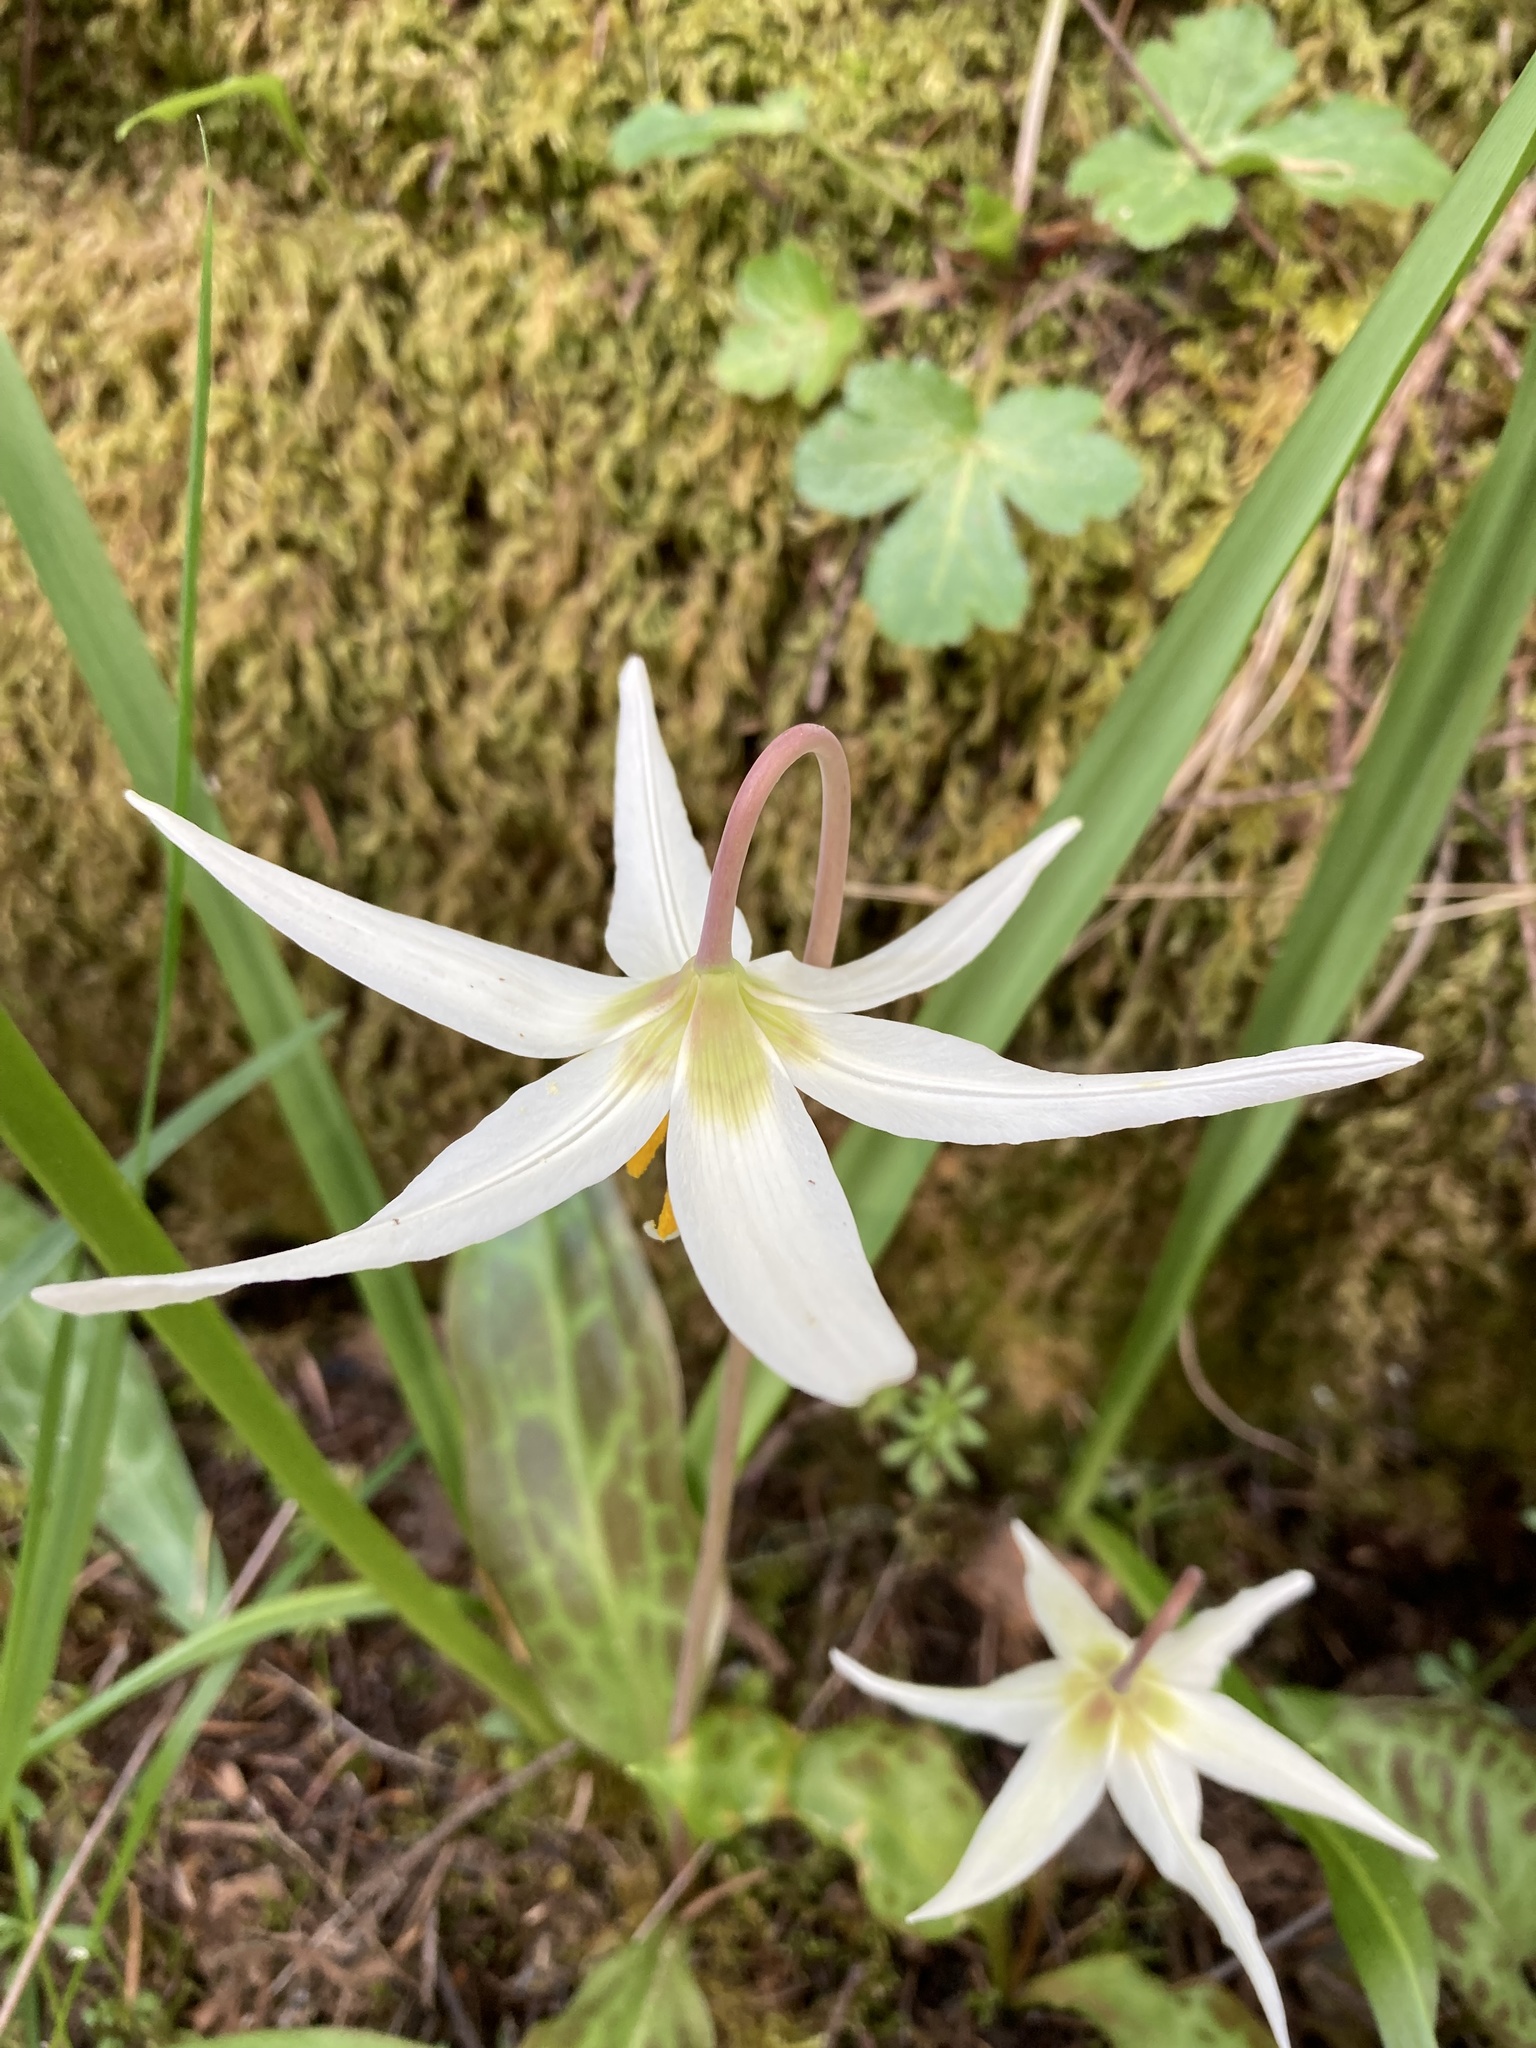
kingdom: Plantae
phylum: Tracheophyta
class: Liliopsida
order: Liliales
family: Liliaceae
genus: Erythronium
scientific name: Erythronium oregonum
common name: Giant adder's-tongue
